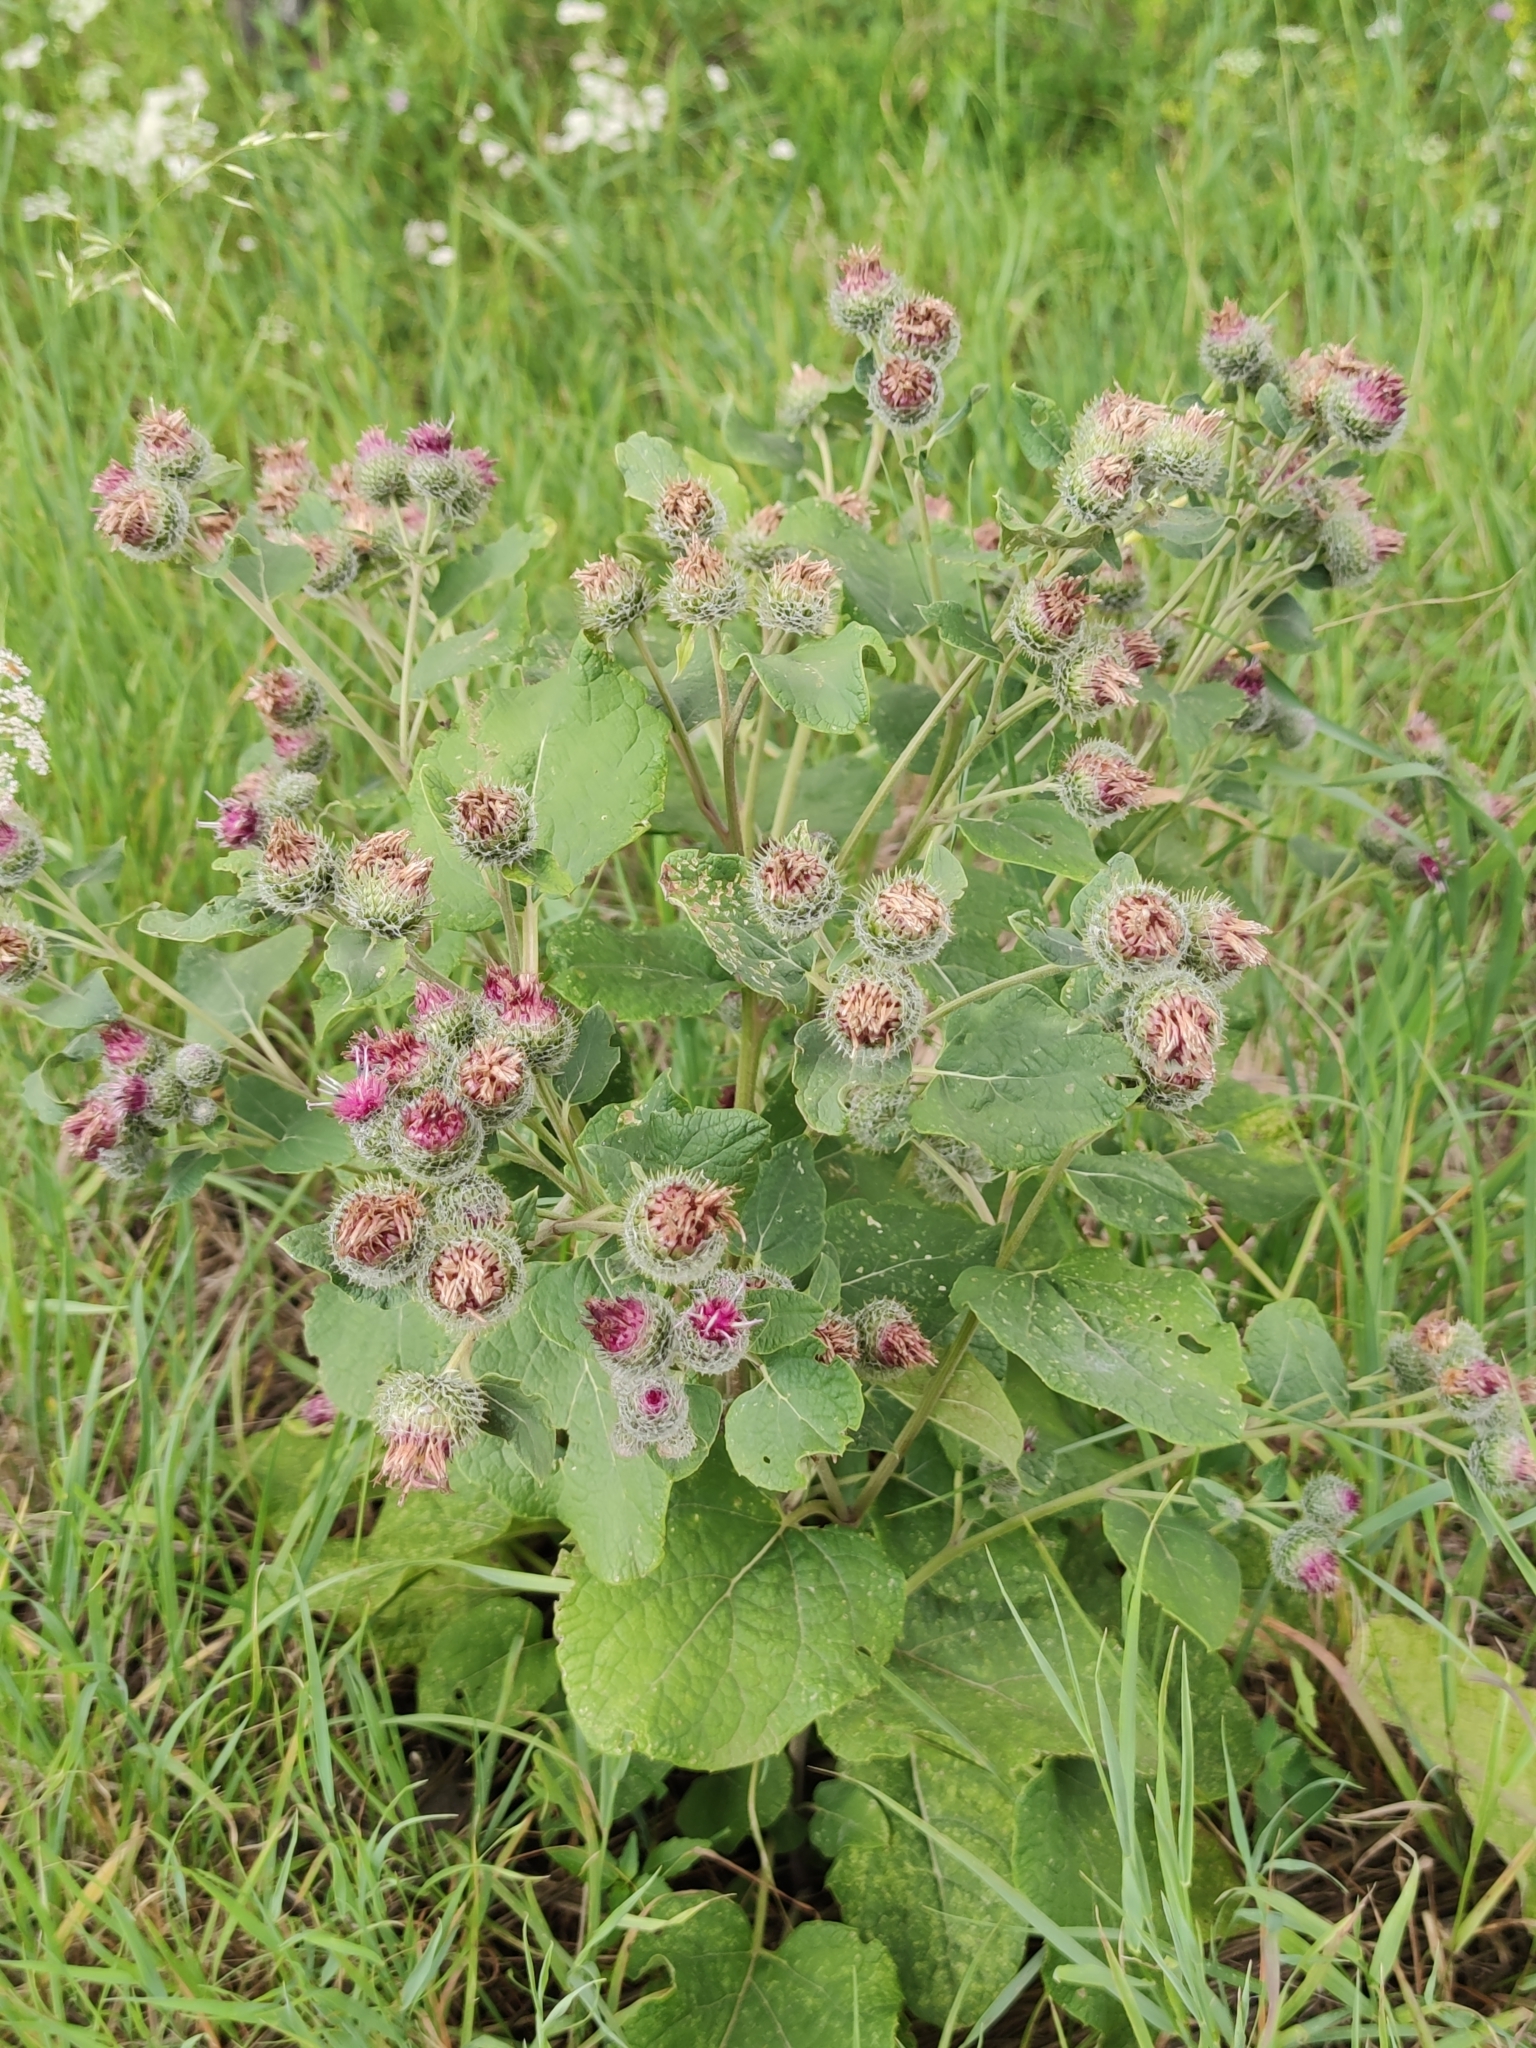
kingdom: Plantae
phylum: Tracheophyta
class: Magnoliopsida
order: Asterales
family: Asteraceae
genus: Arctium
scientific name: Arctium tomentosum
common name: Woolly burdock
